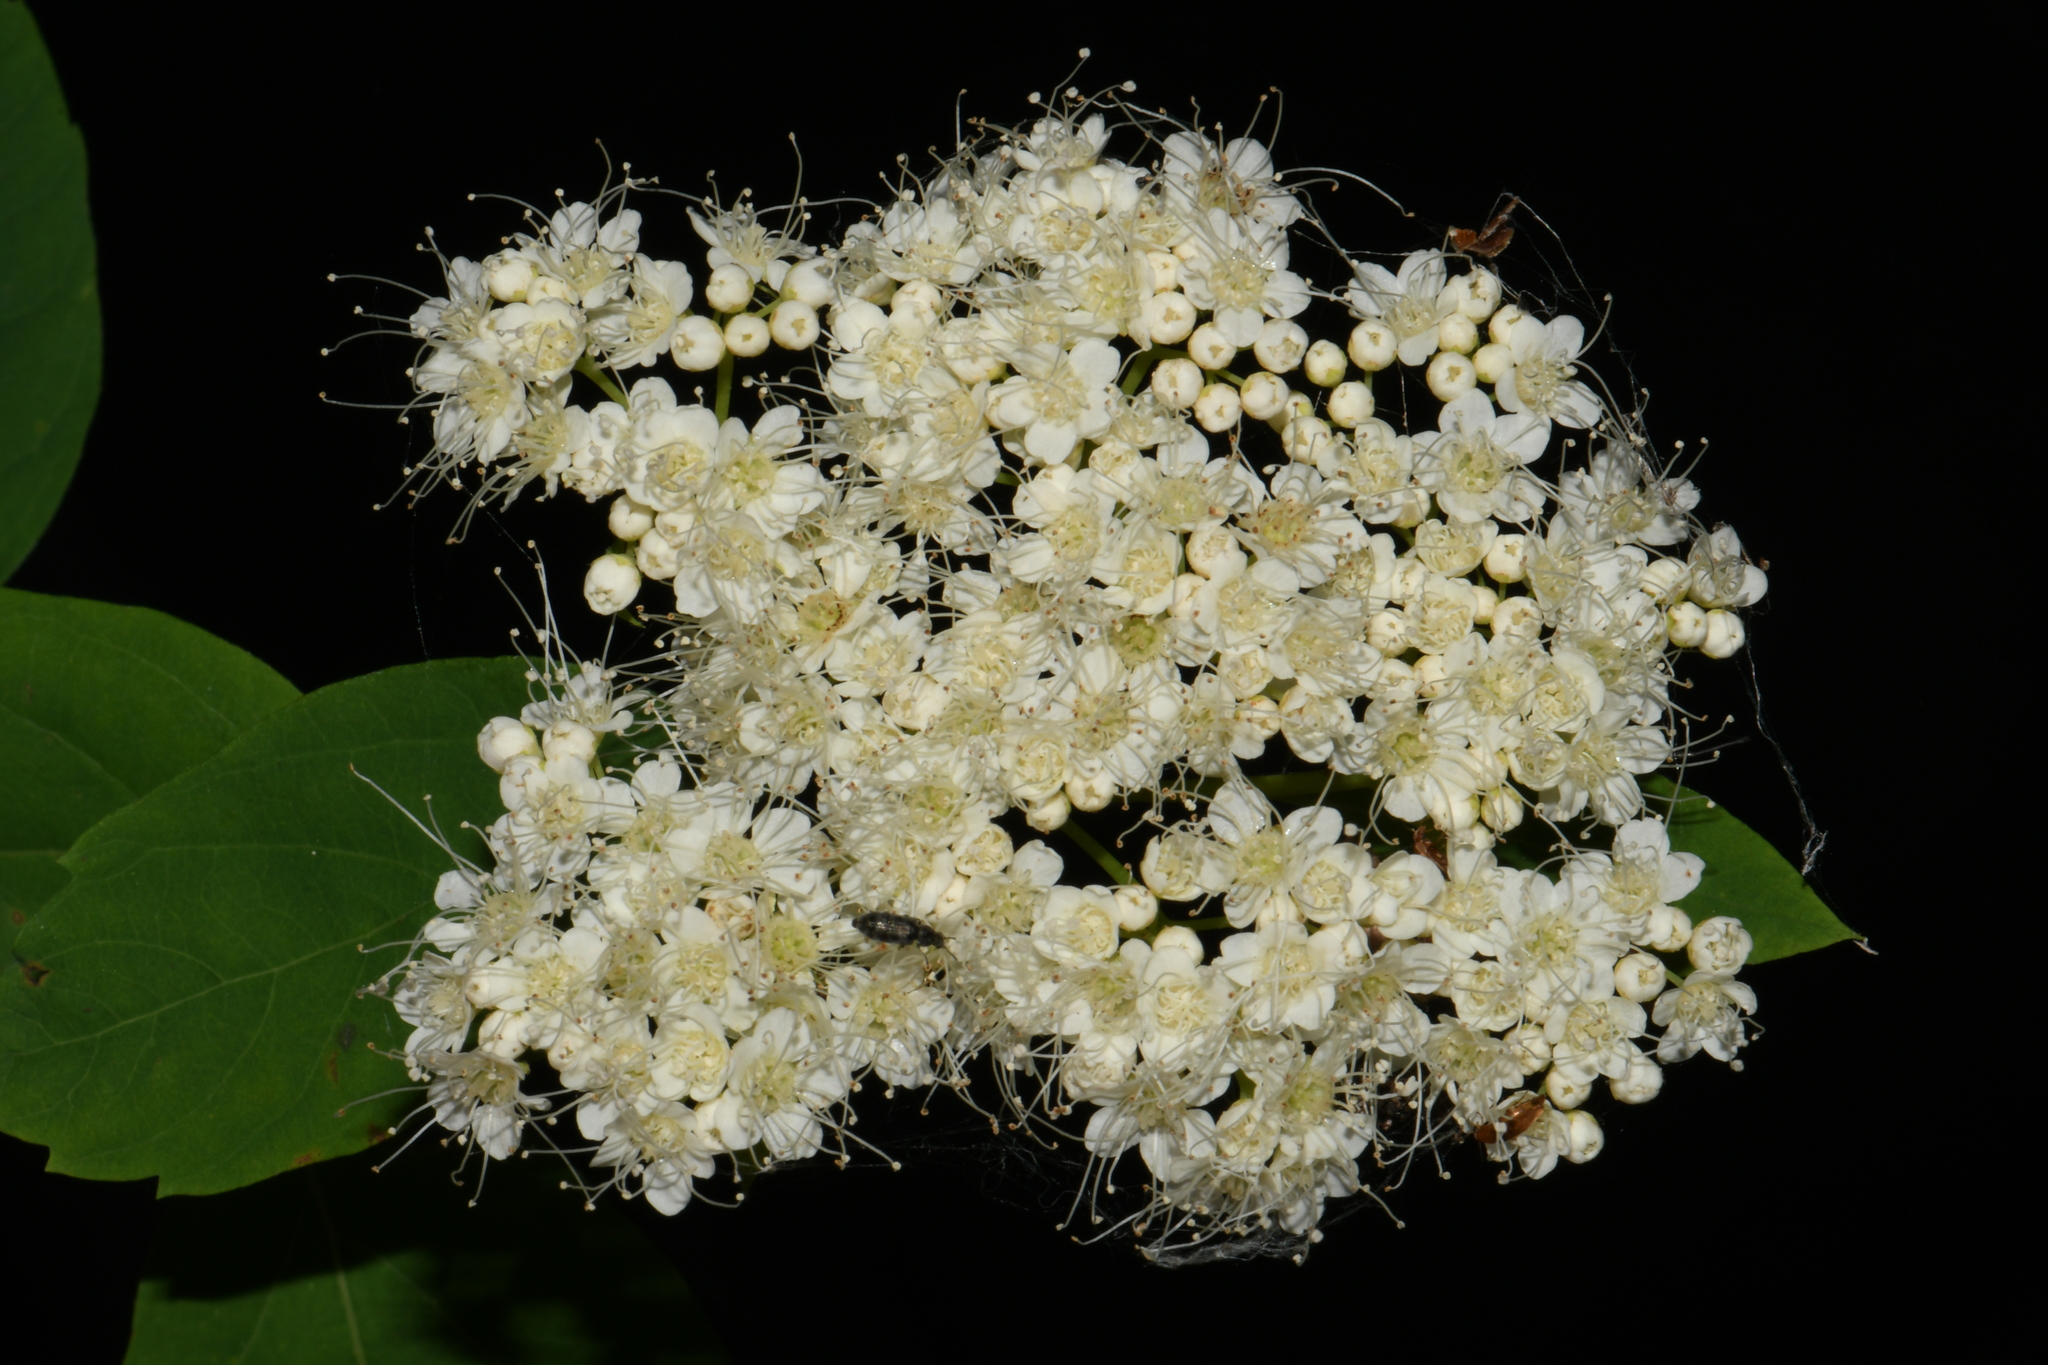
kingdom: Plantae
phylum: Tracheophyta
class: Magnoliopsida
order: Rosales
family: Rosaceae
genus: Spiraea
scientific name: Spiraea lucida
